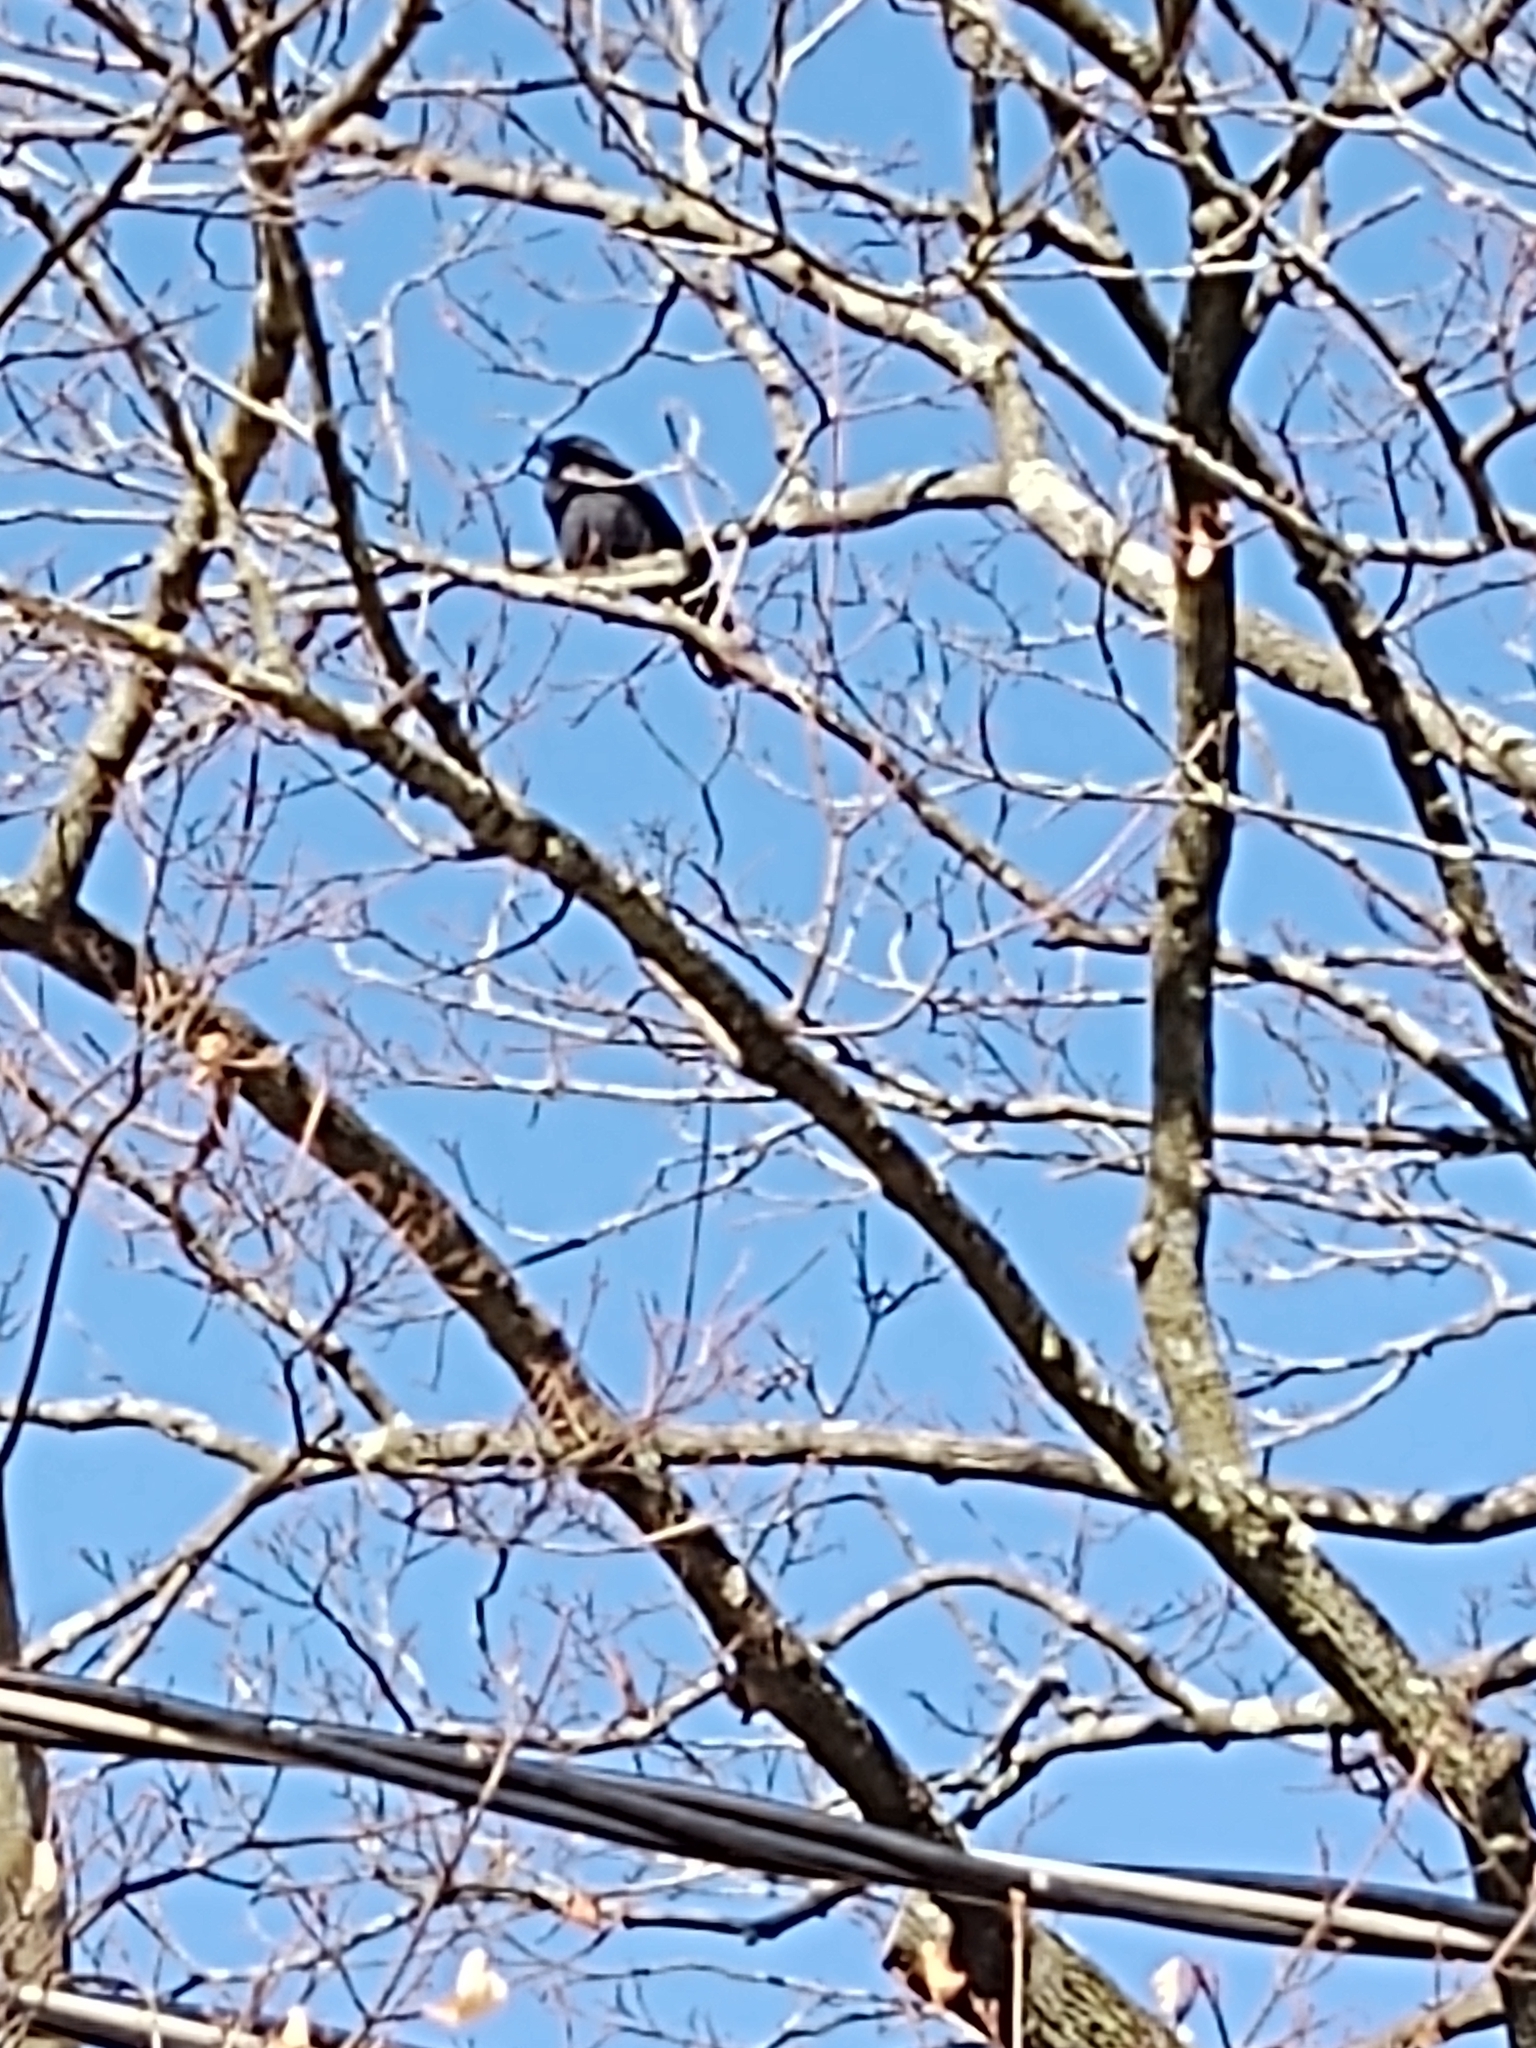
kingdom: Animalia
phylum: Chordata
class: Aves
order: Passeriformes
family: Corvidae
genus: Corvus
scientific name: Corvus ossifragus
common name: Fish crow
